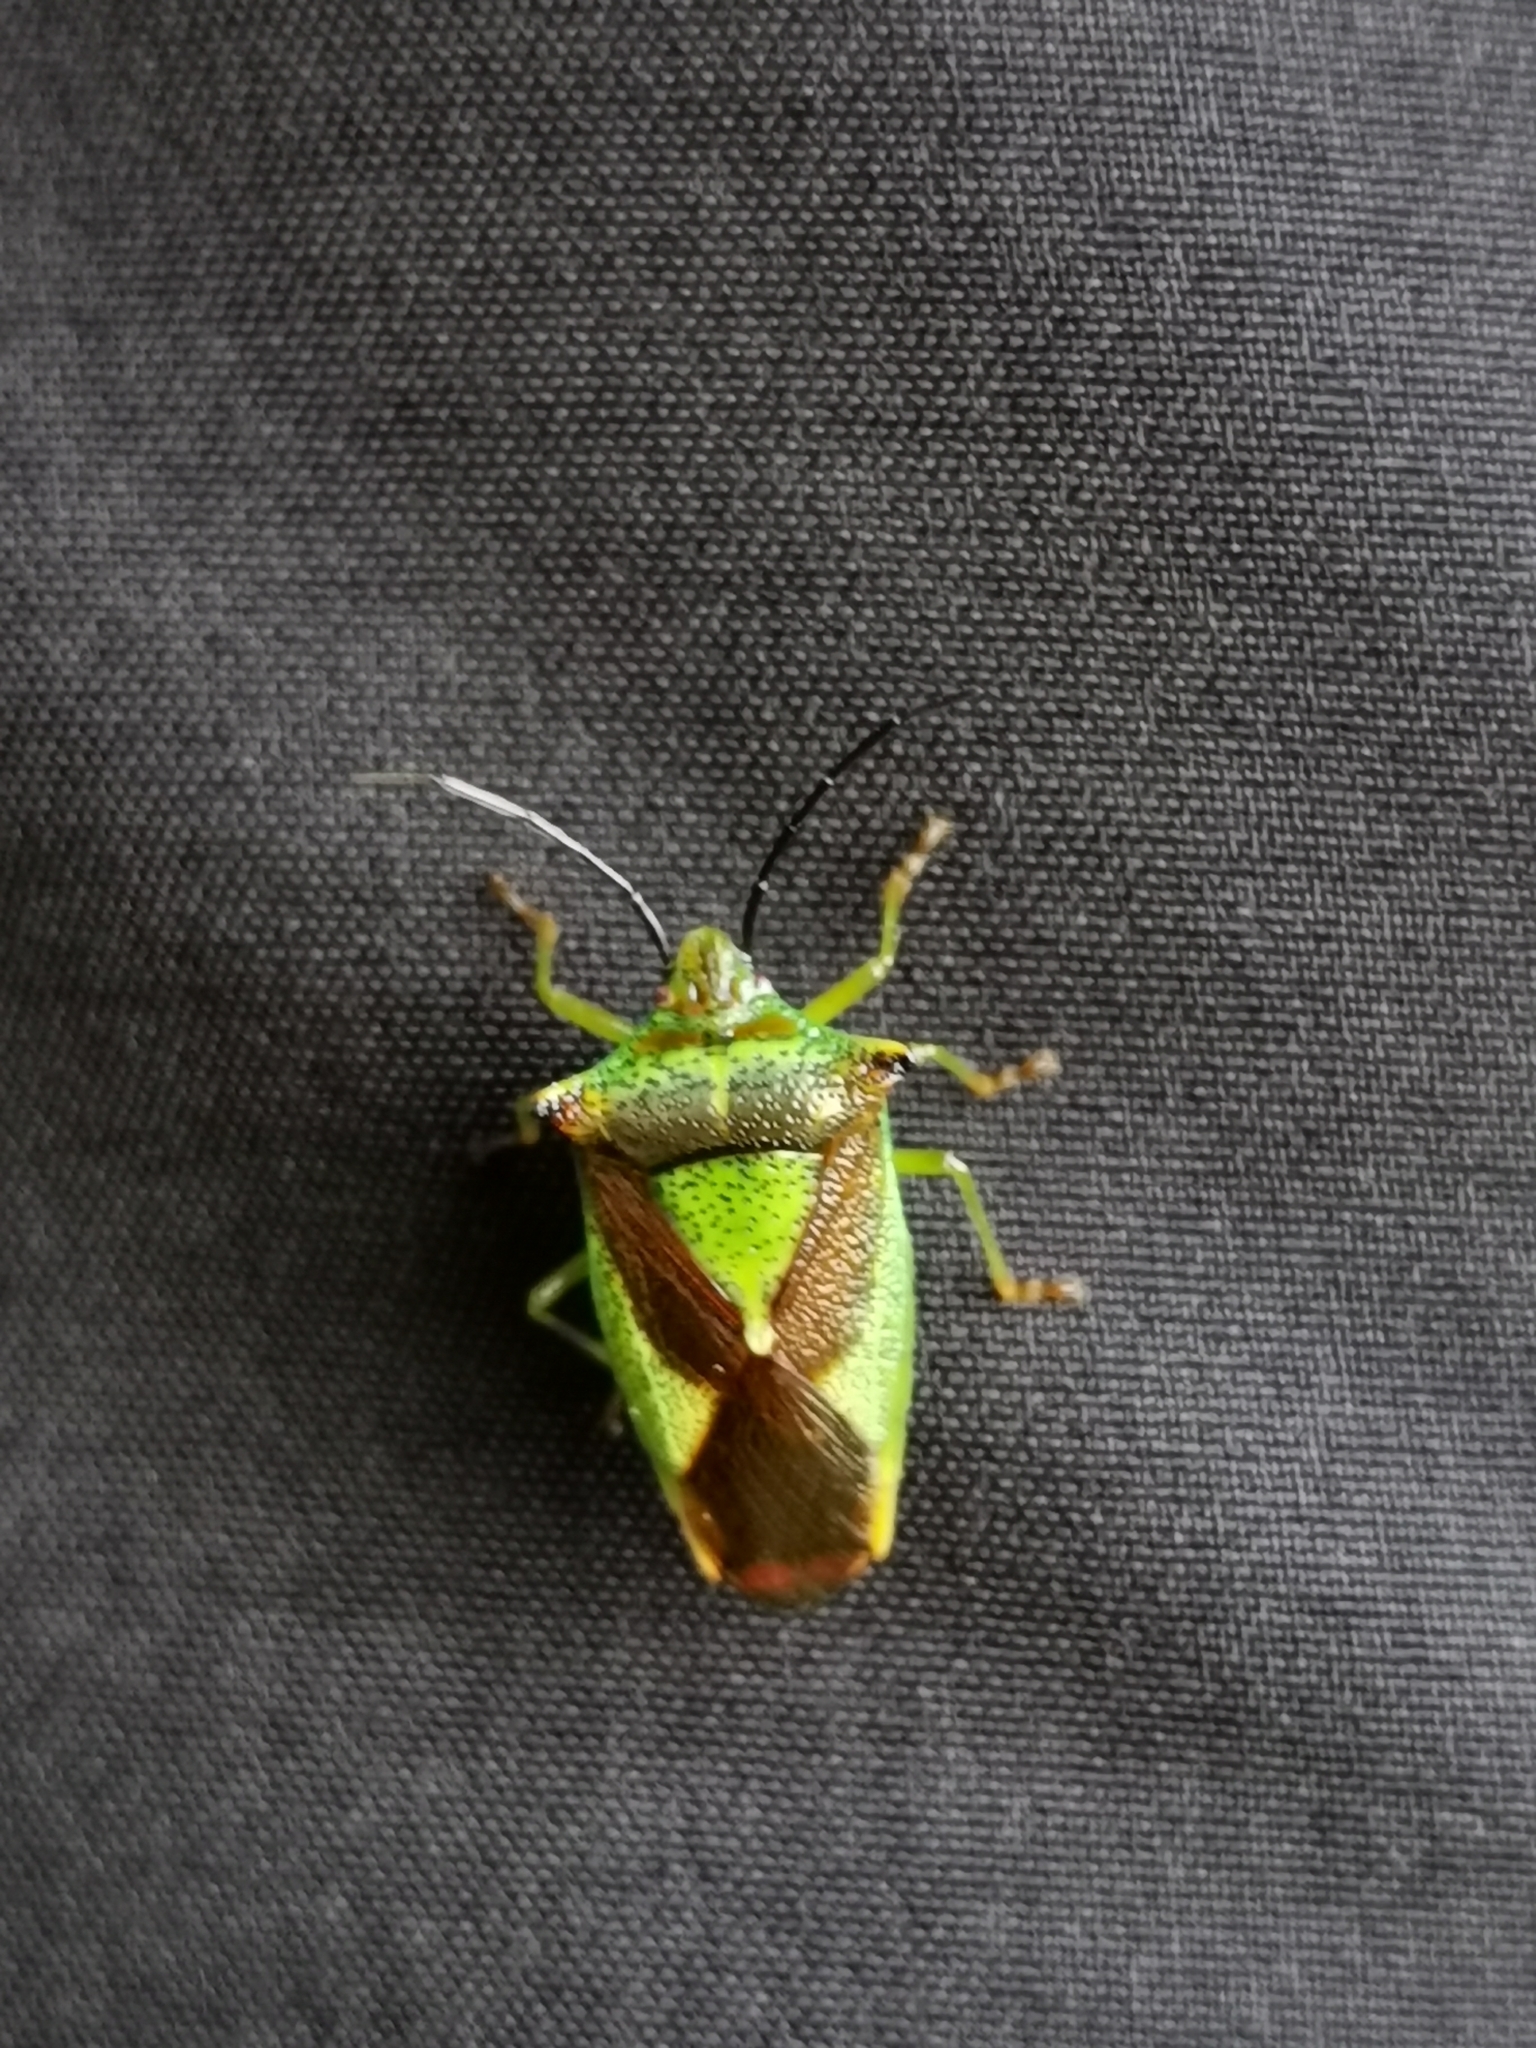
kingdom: Animalia
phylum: Arthropoda
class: Insecta
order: Hemiptera
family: Acanthosomatidae
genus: Acanthosoma
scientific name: Acanthosoma haemorrhoidale
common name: Hawthorn shieldbug
